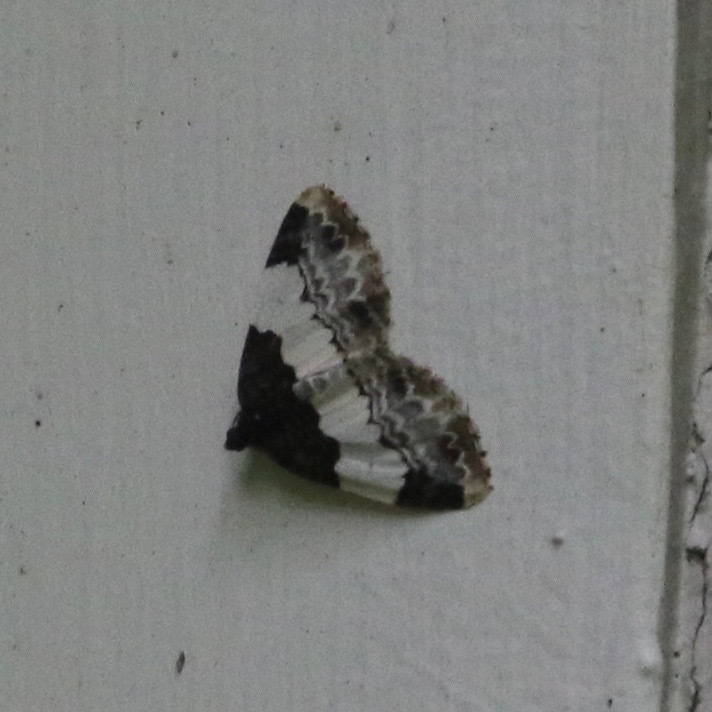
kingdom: Animalia
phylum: Arthropoda
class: Insecta
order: Lepidoptera
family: Geometridae
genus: Mesoleuca
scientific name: Mesoleuca ruficillata
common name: White-ribboned carpet moth
